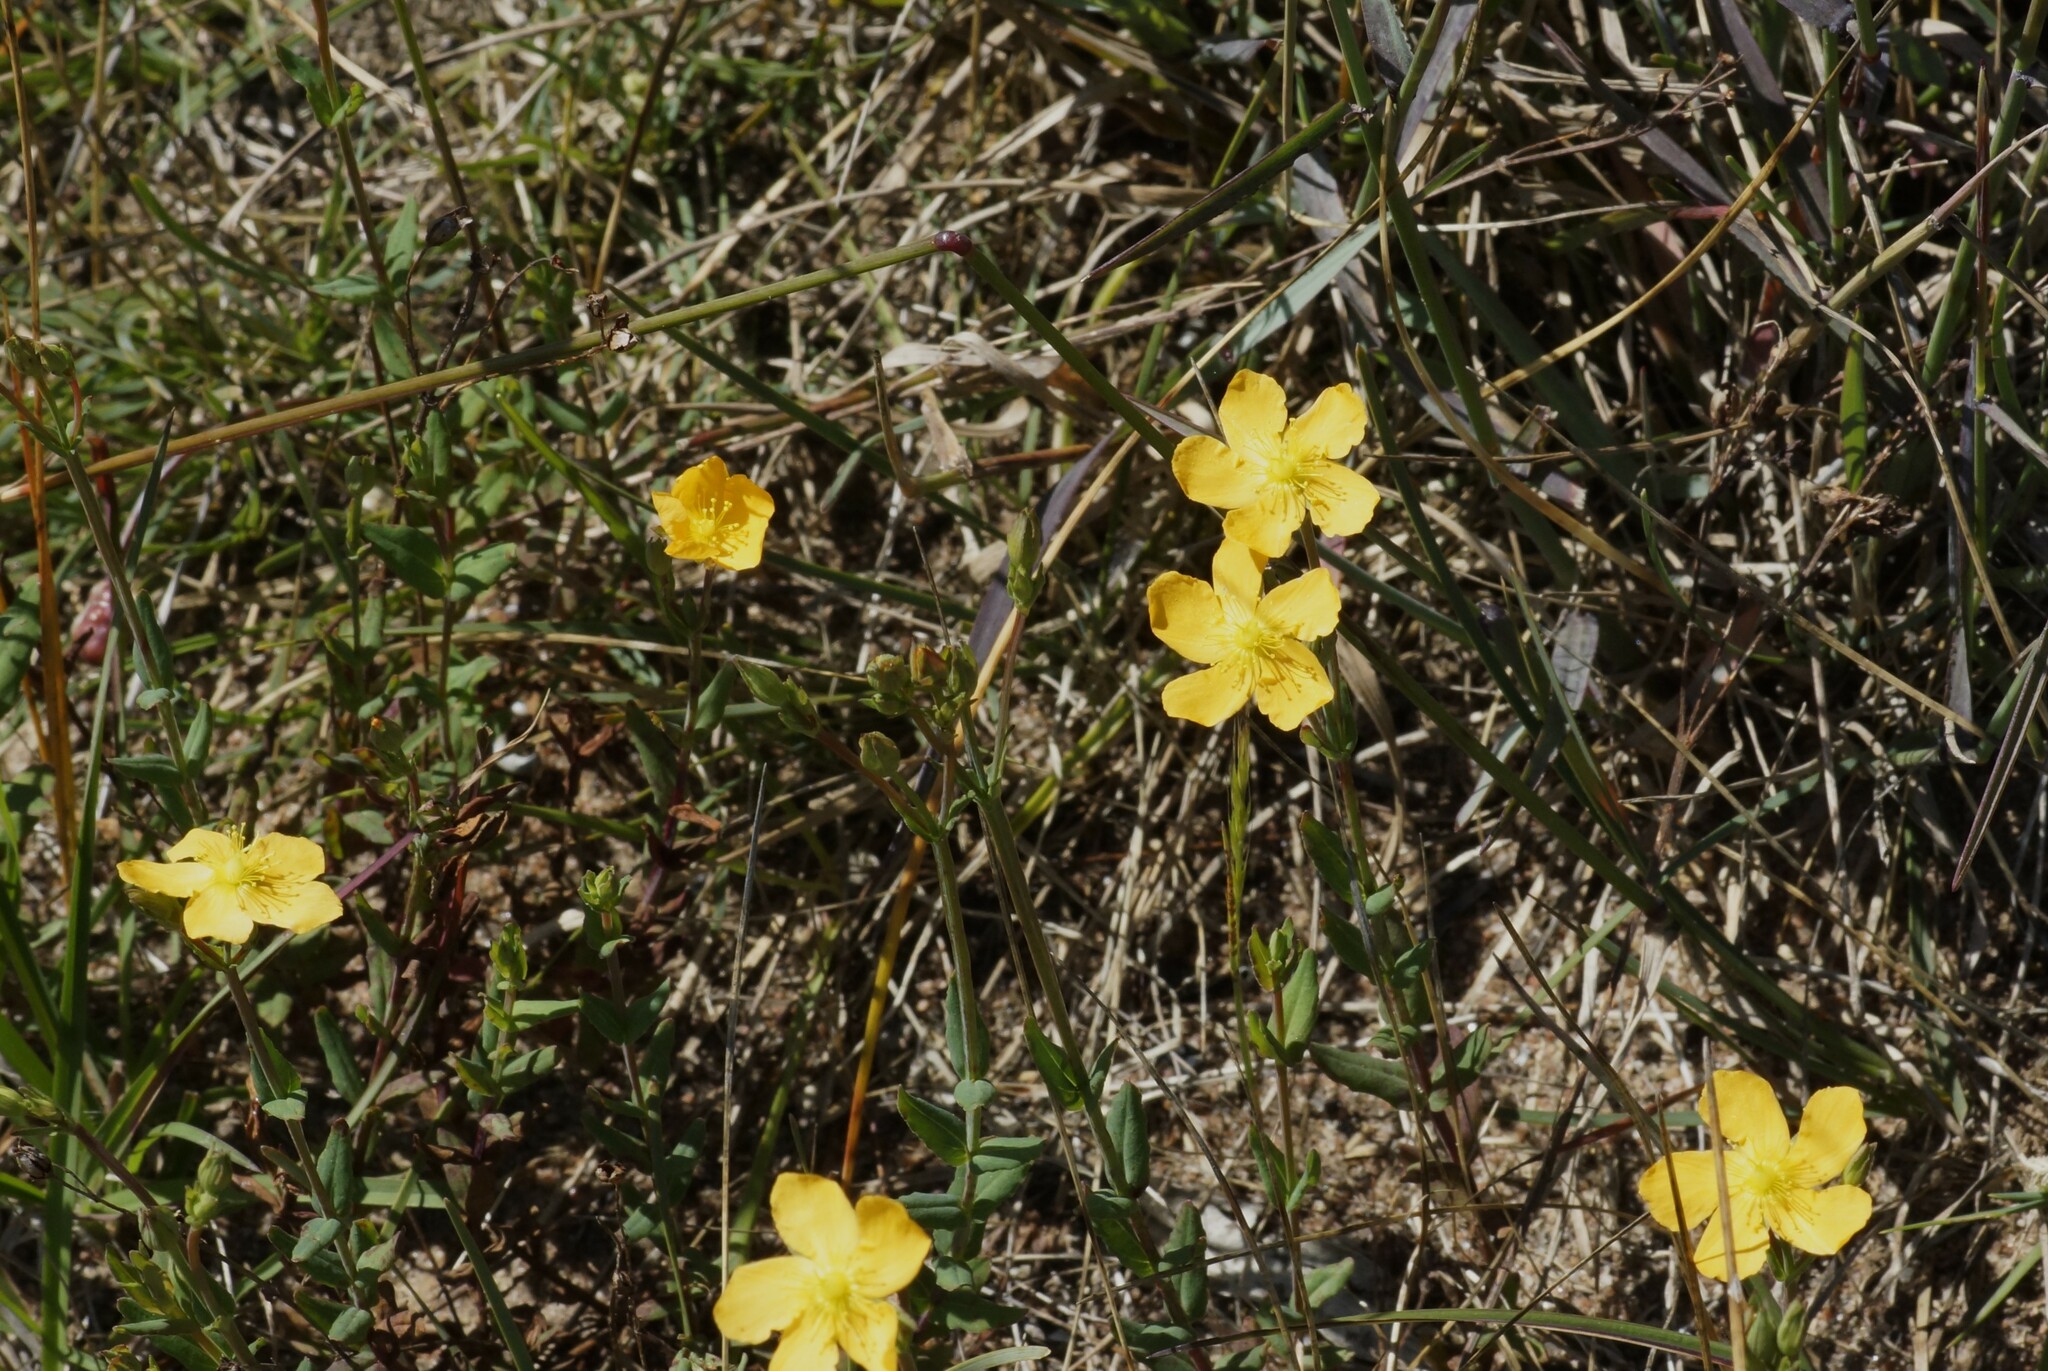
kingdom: Plantae
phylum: Tracheophyta
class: Magnoliopsida
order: Malpighiales
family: Hypericaceae
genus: Hypericum
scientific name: Hypericum gramineum
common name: Grassy st. johnswort
